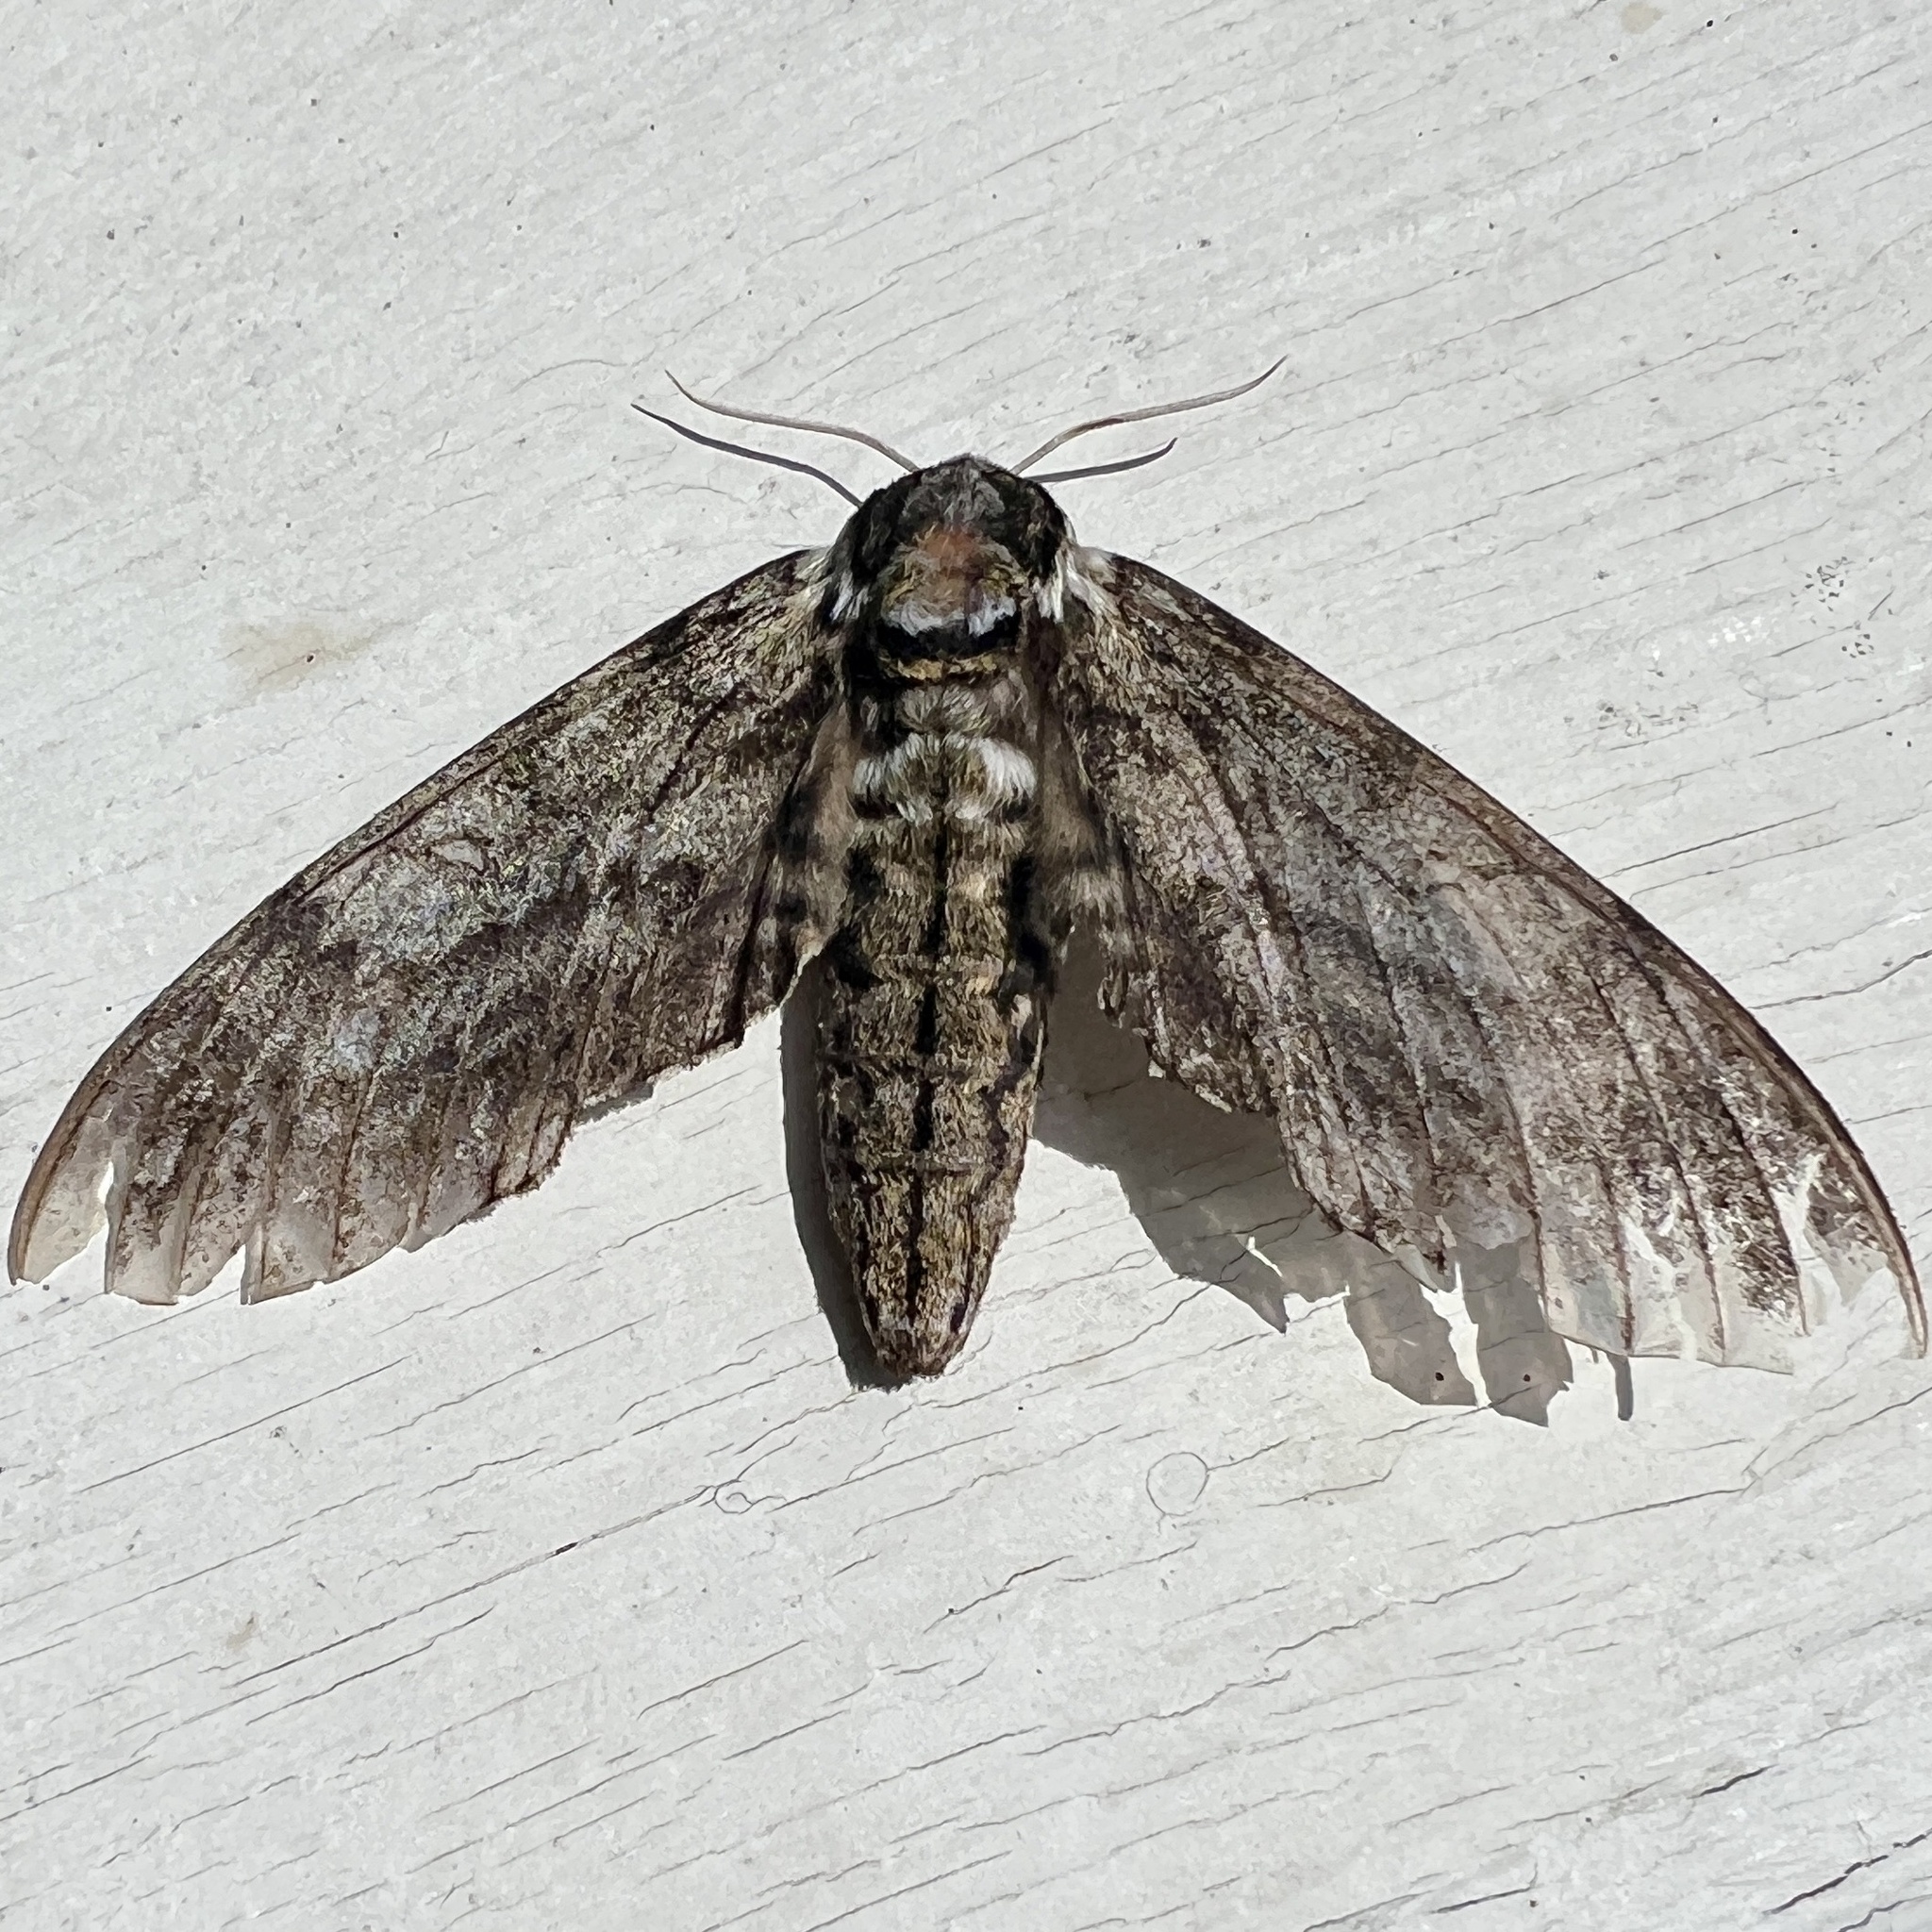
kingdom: Animalia
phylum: Arthropoda
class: Insecta
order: Lepidoptera
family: Sphingidae
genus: Ceratomia
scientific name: Ceratomia undulosa
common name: Waved sphinx
